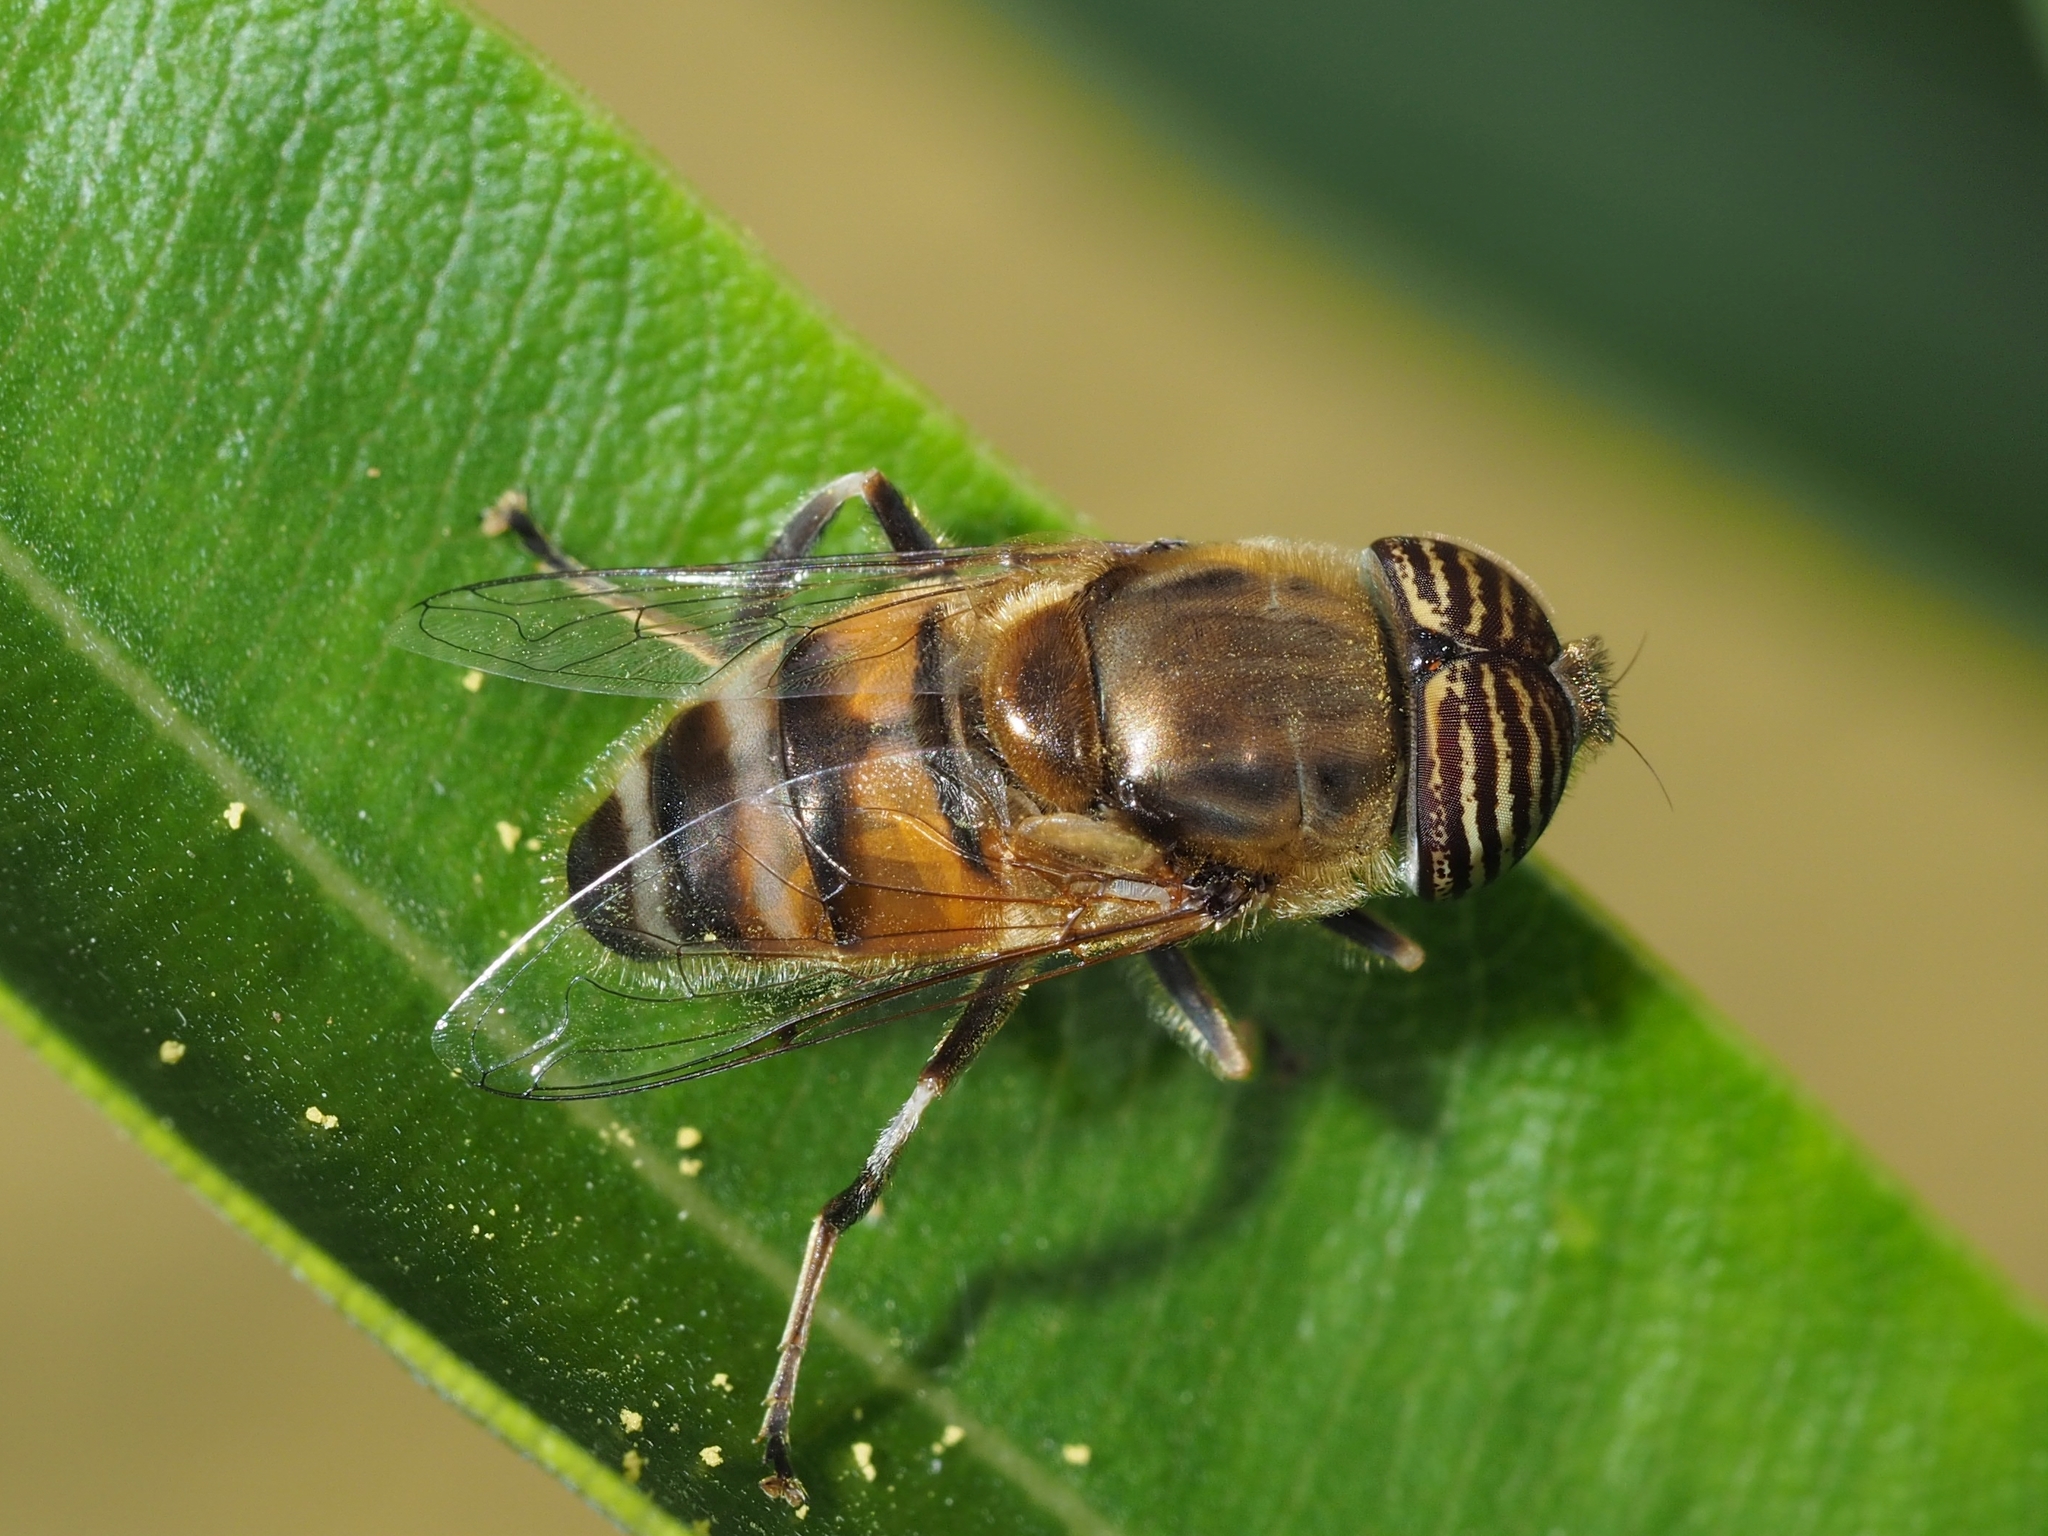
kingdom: Animalia
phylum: Arthropoda
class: Insecta
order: Diptera
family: Syrphidae
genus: Eristalinus
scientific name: Eristalinus taeniops
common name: Syrphid fly
